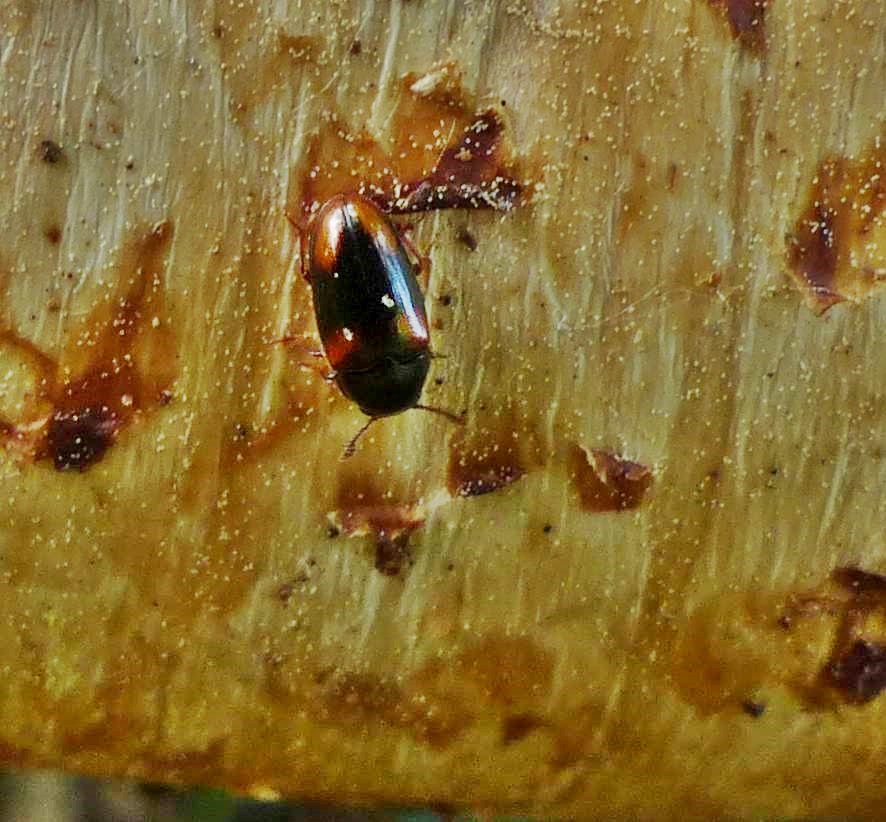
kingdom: Animalia
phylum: Arthropoda
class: Insecta
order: Coleoptera
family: Erotylidae
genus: Dacne
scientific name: Dacne quadrimaculata
